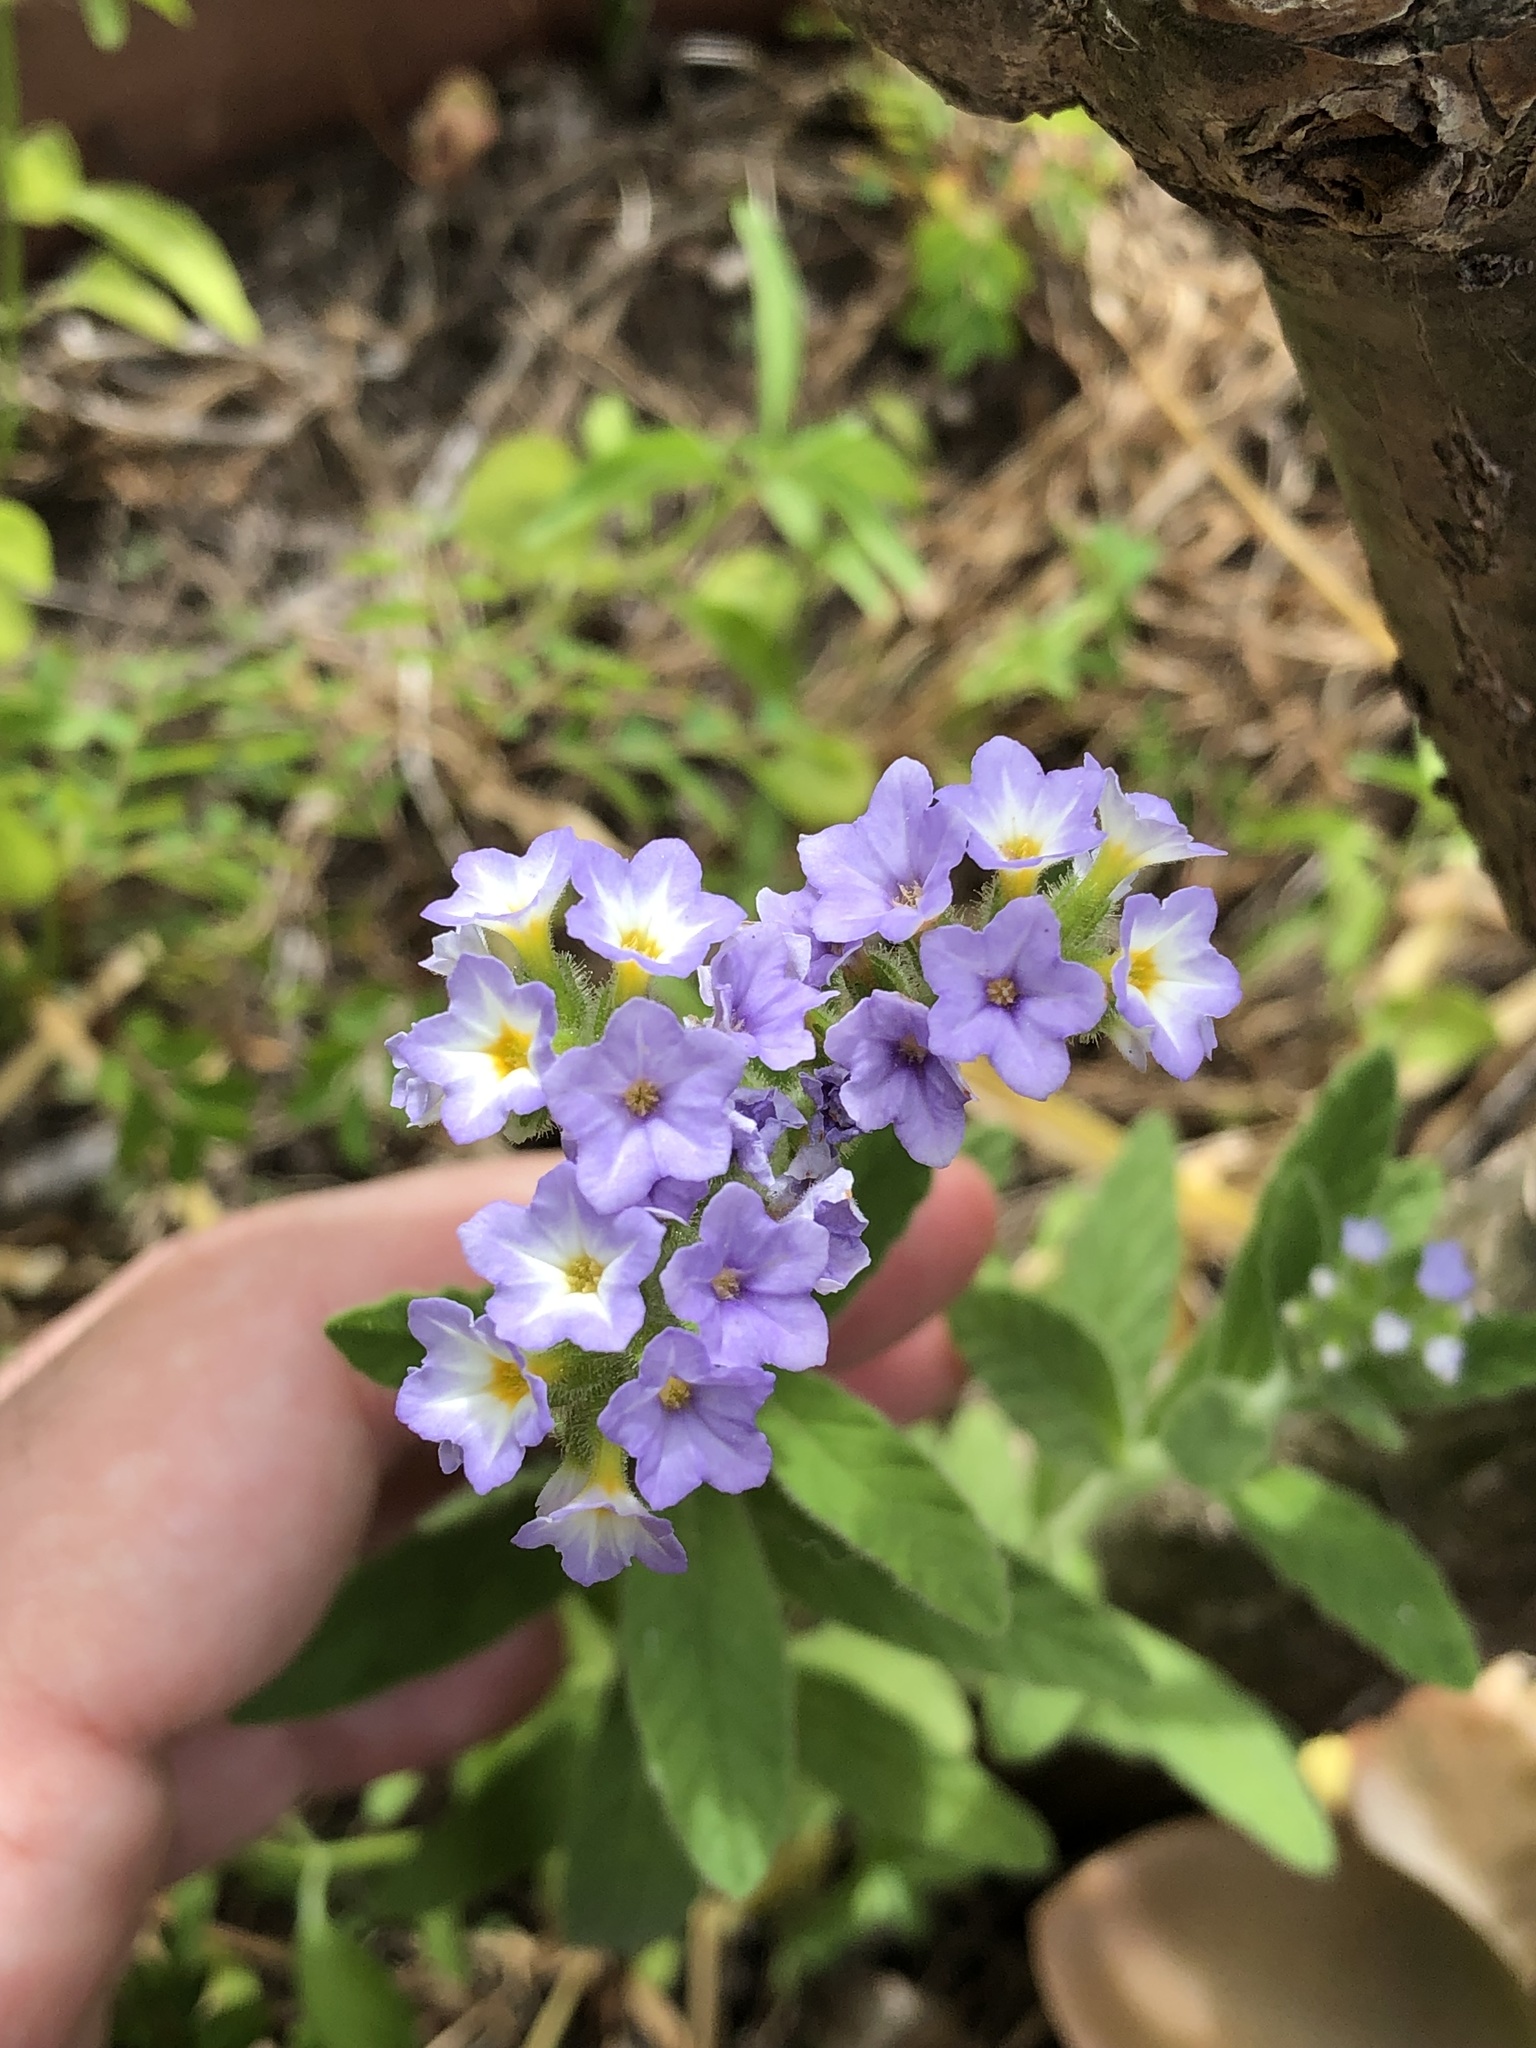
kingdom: Plantae
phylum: Tracheophyta
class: Magnoliopsida
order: Boraginales
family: Heliotropiaceae
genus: Heliotropium
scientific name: Heliotropium amplexicaule
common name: Clasping heliotrope
